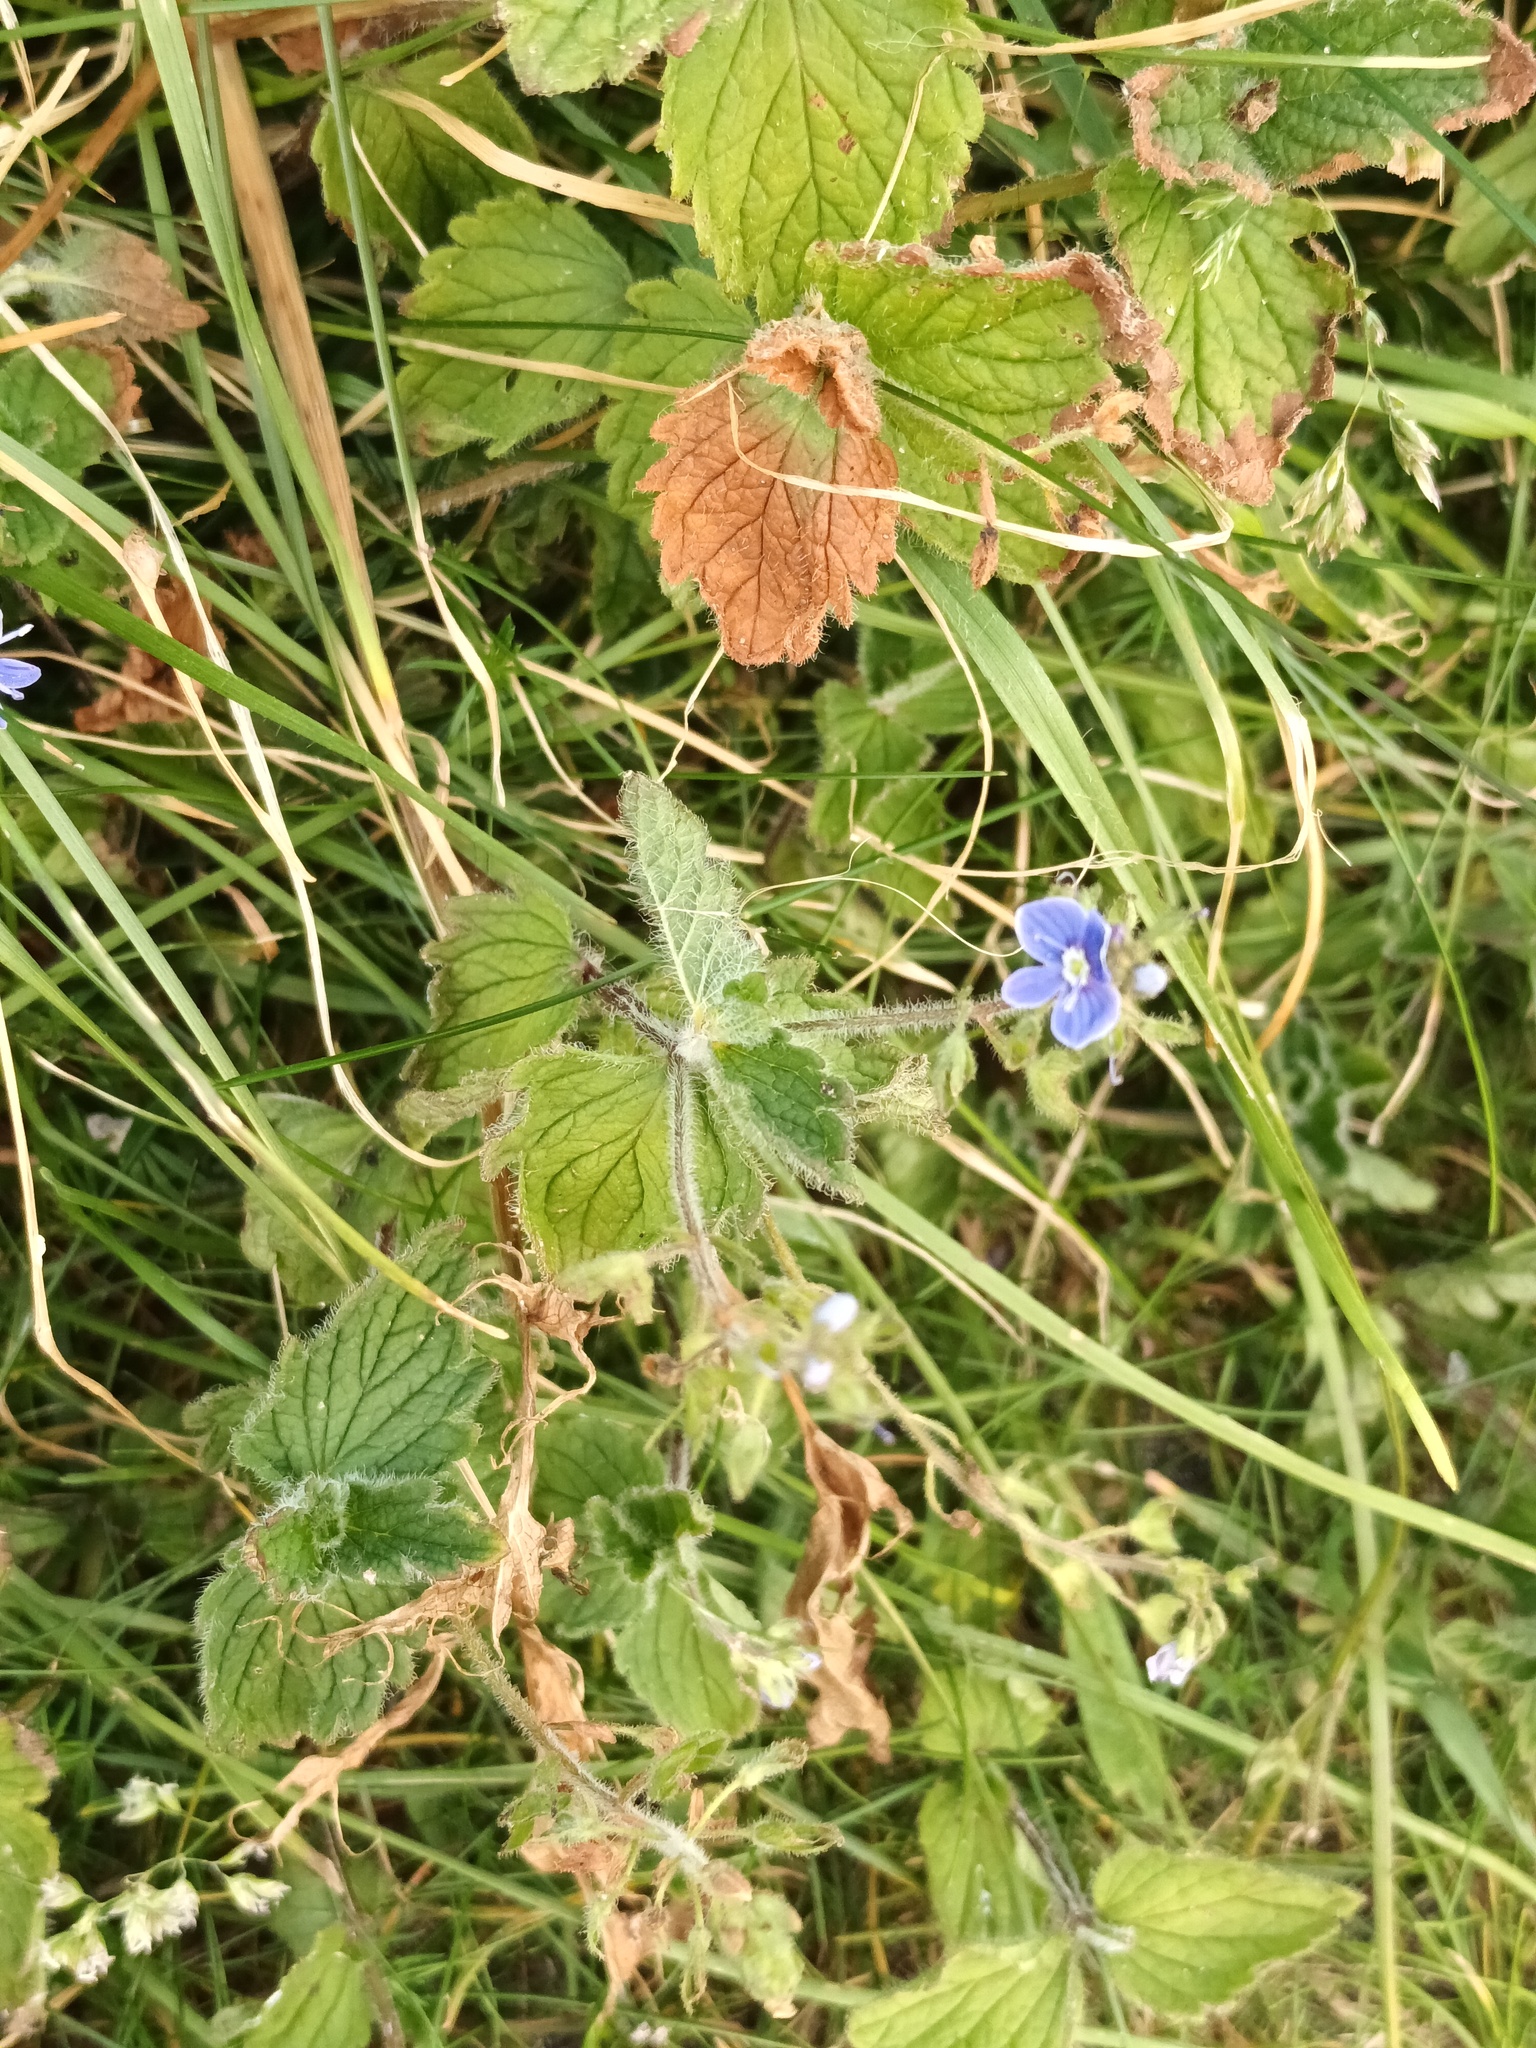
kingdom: Plantae
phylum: Tracheophyta
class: Magnoliopsida
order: Lamiales
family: Plantaginaceae
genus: Veronica
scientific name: Veronica chamaedrys
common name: Germander speedwell
